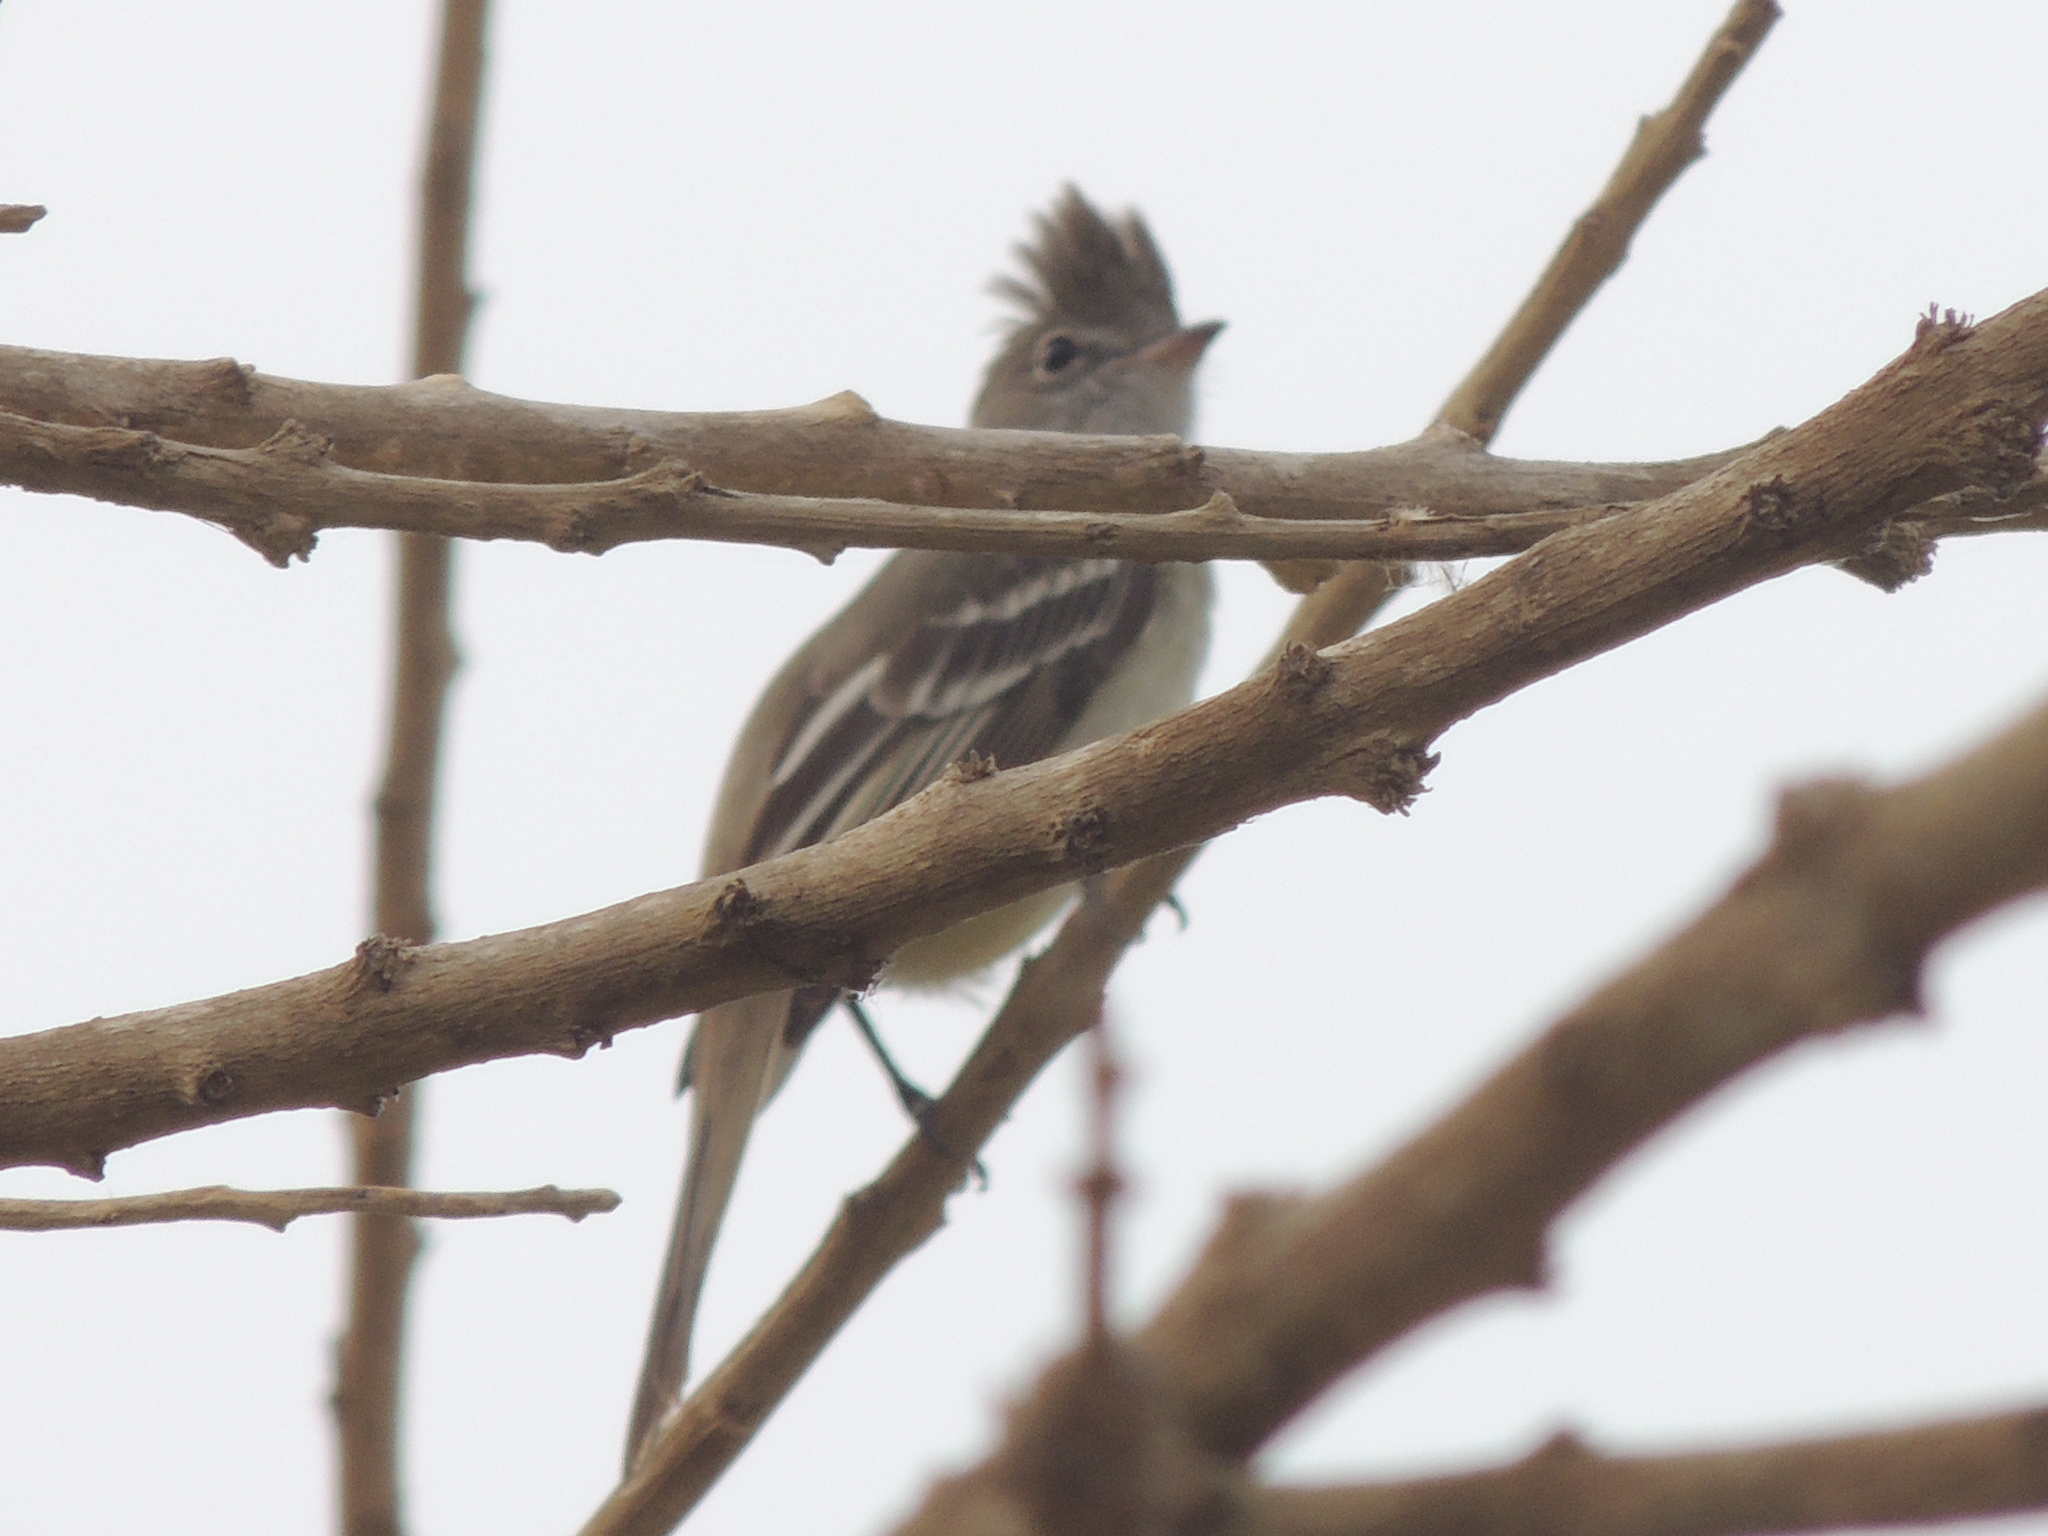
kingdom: Animalia
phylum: Chordata
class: Aves
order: Passeriformes
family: Tyrannidae
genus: Elaenia
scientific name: Elaenia flavogaster
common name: Yellow-bellied elaenia
